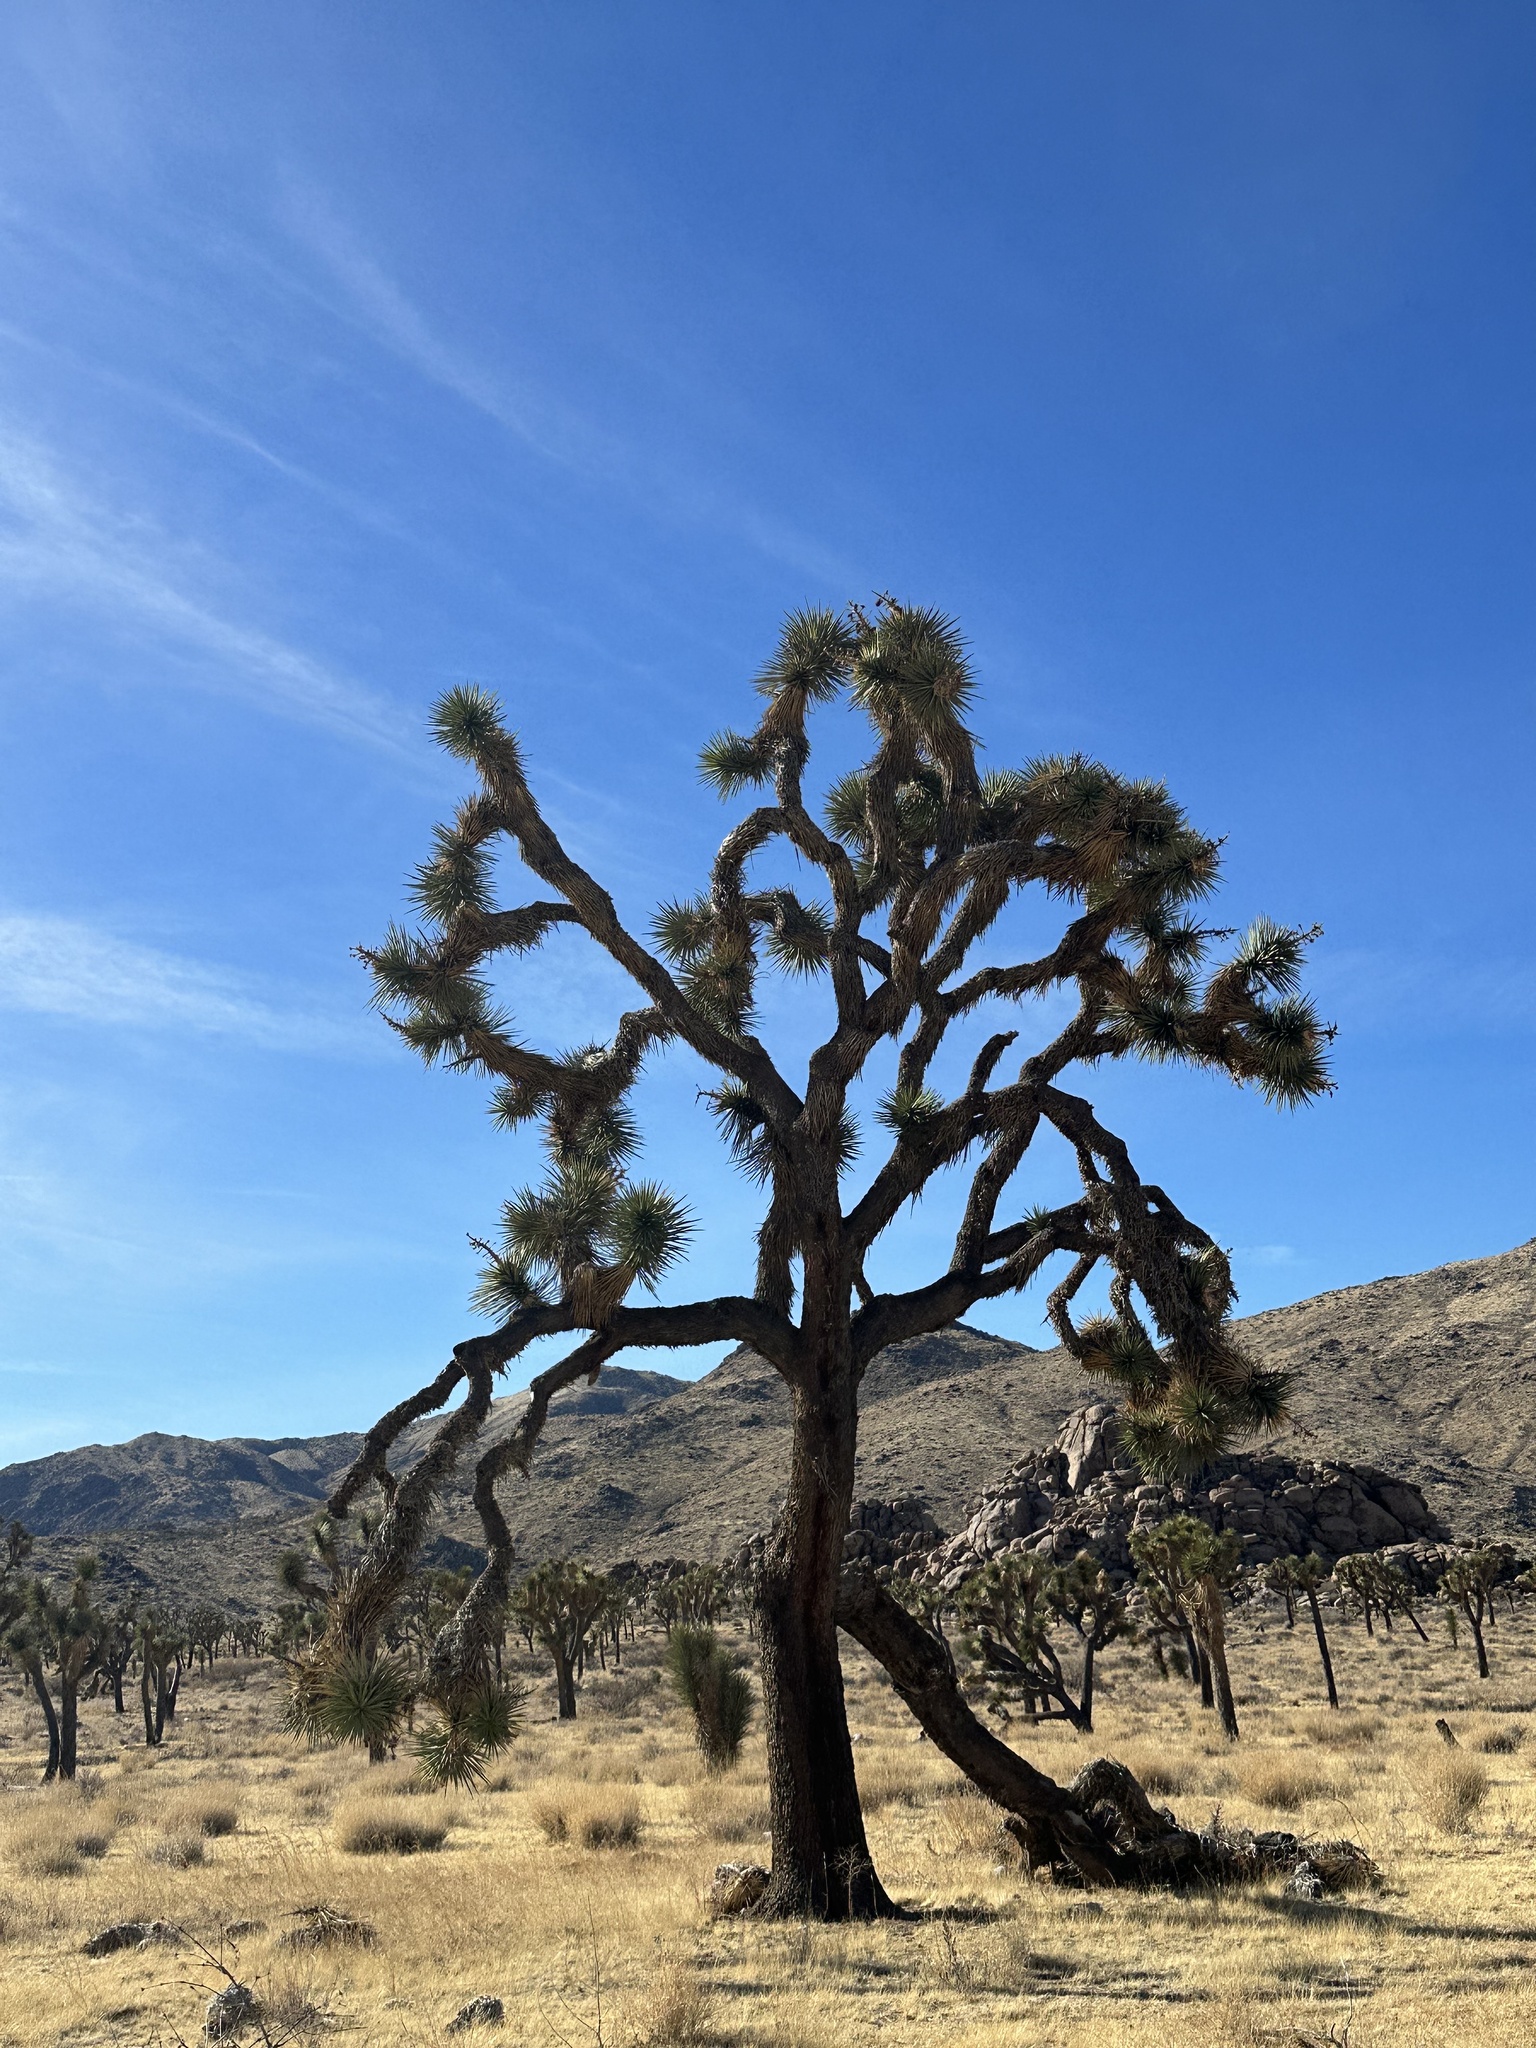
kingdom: Plantae
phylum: Tracheophyta
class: Liliopsida
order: Asparagales
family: Asparagaceae
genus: Yucca
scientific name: Yucca brevifolia
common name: Joshua tree
